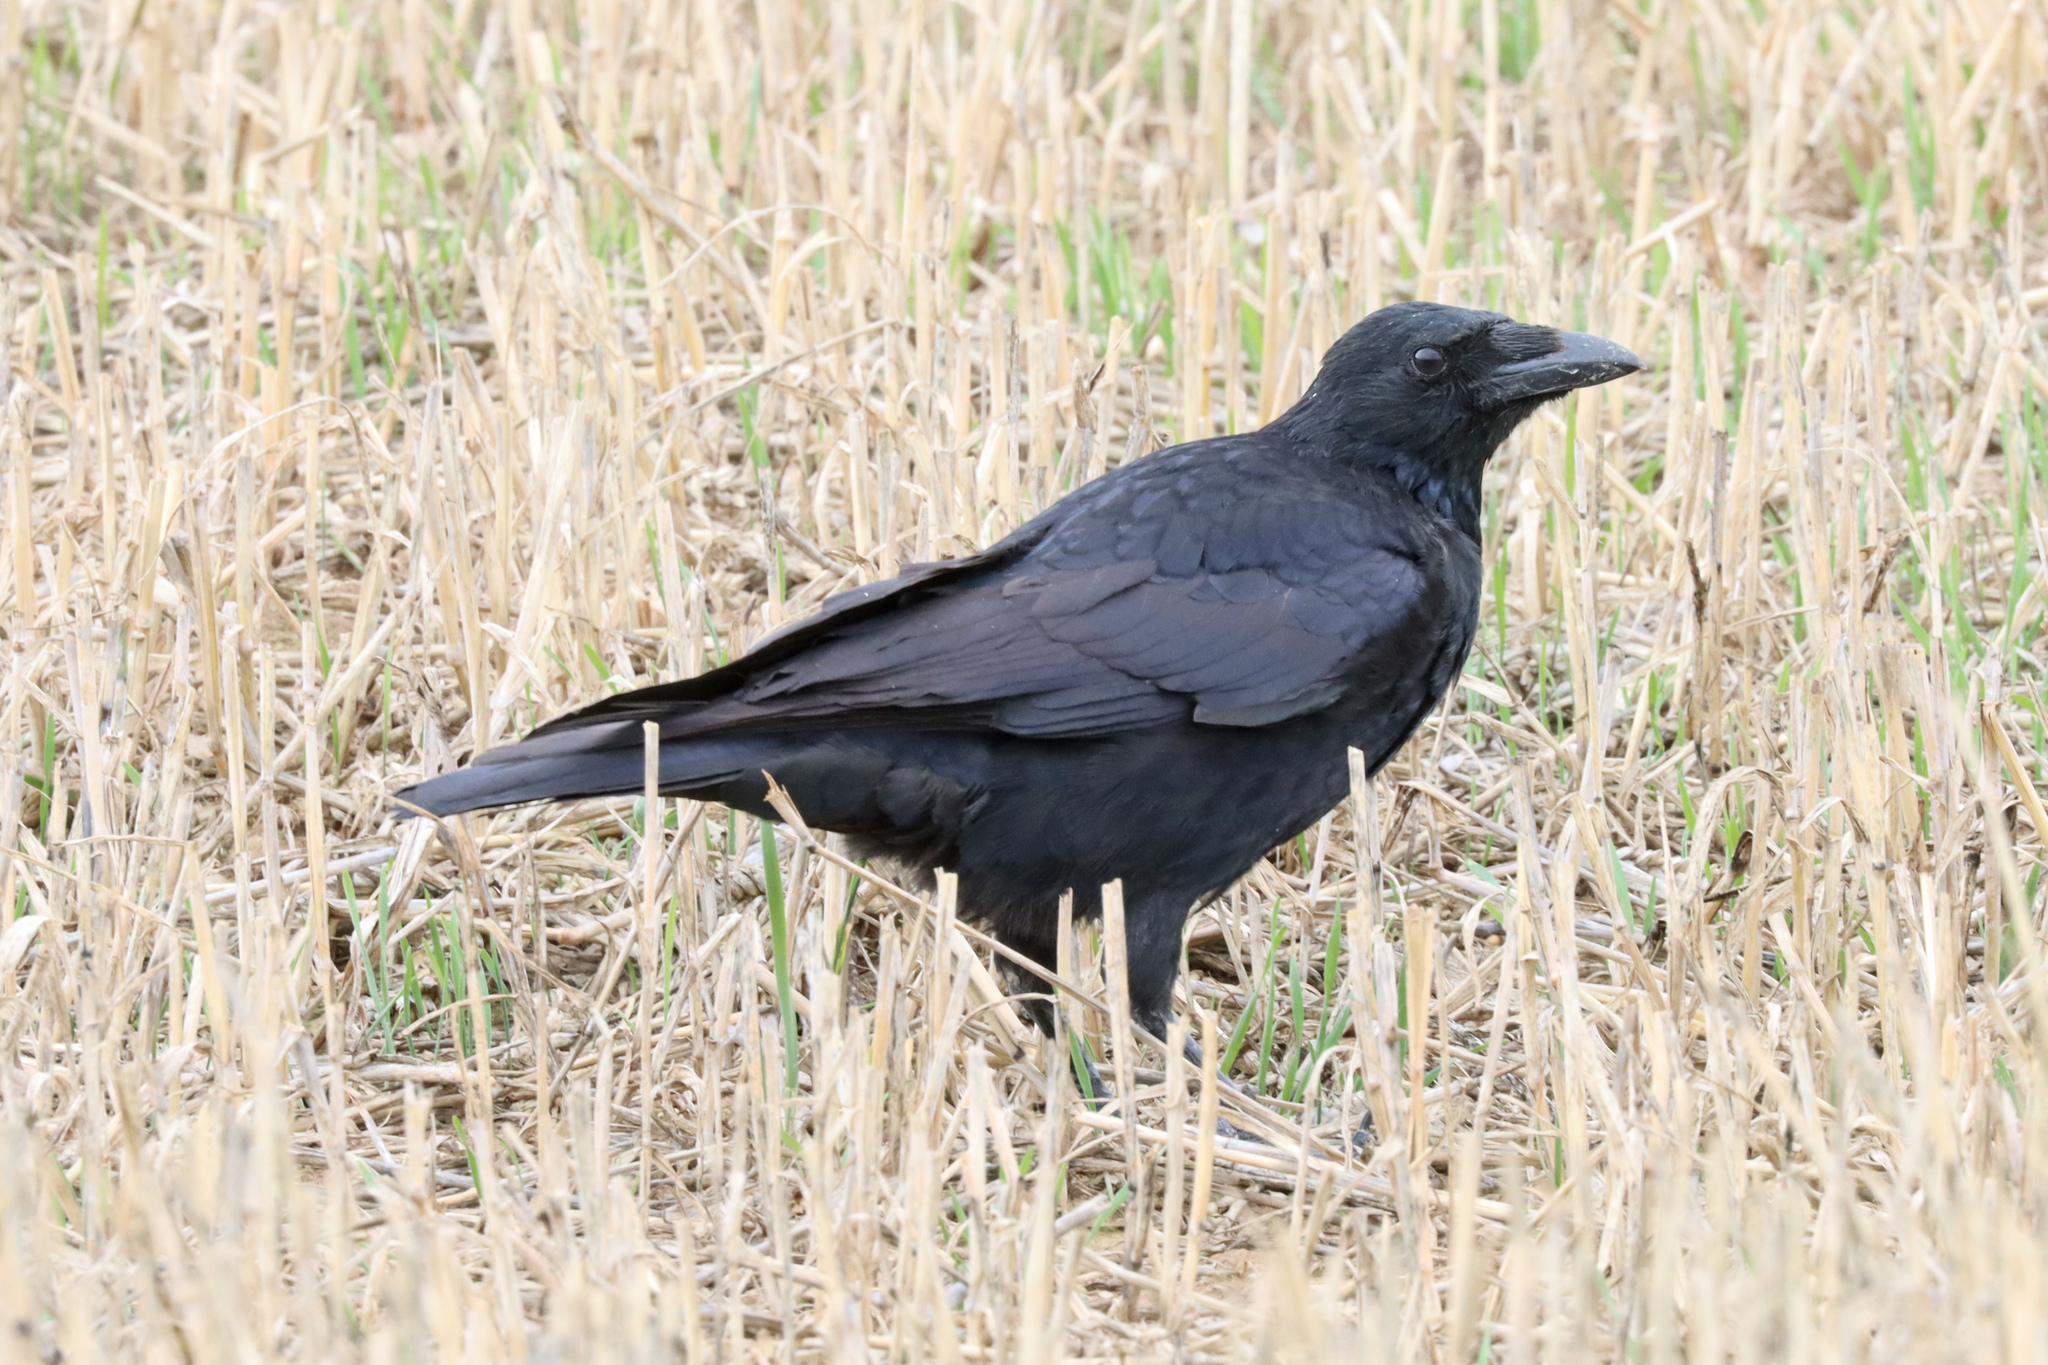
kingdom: Animalia
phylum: Chordata
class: Aves
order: Passeriformes
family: Corvidae
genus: Corvus
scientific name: Corvus corone
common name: Carrion crow
